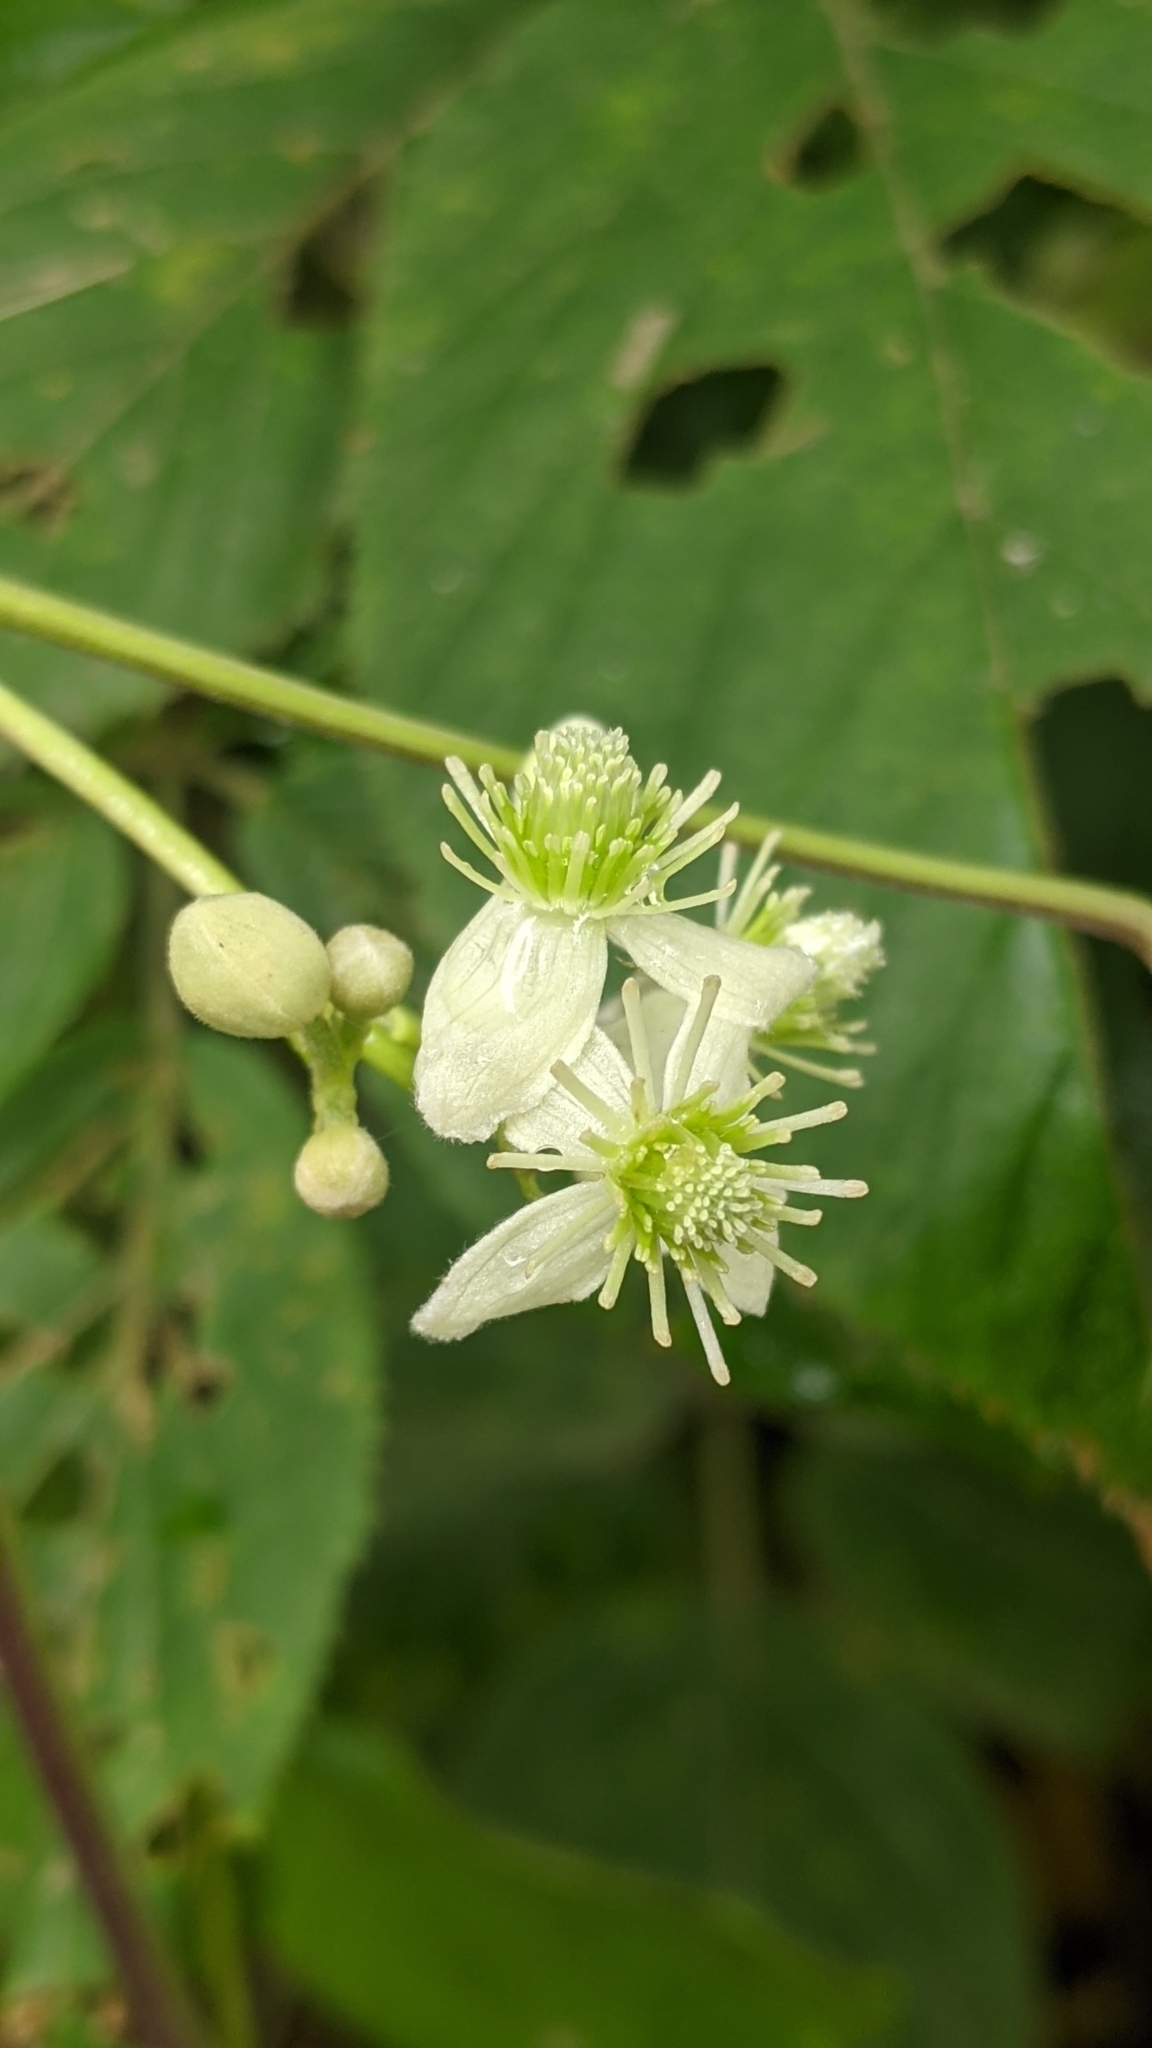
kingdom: Plantae
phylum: Tracheophyta
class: Magnoliopsida
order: Ranunculales
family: Ranunculaceae
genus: Clematis
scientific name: Clematis virginiana
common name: Virgin's-bower
